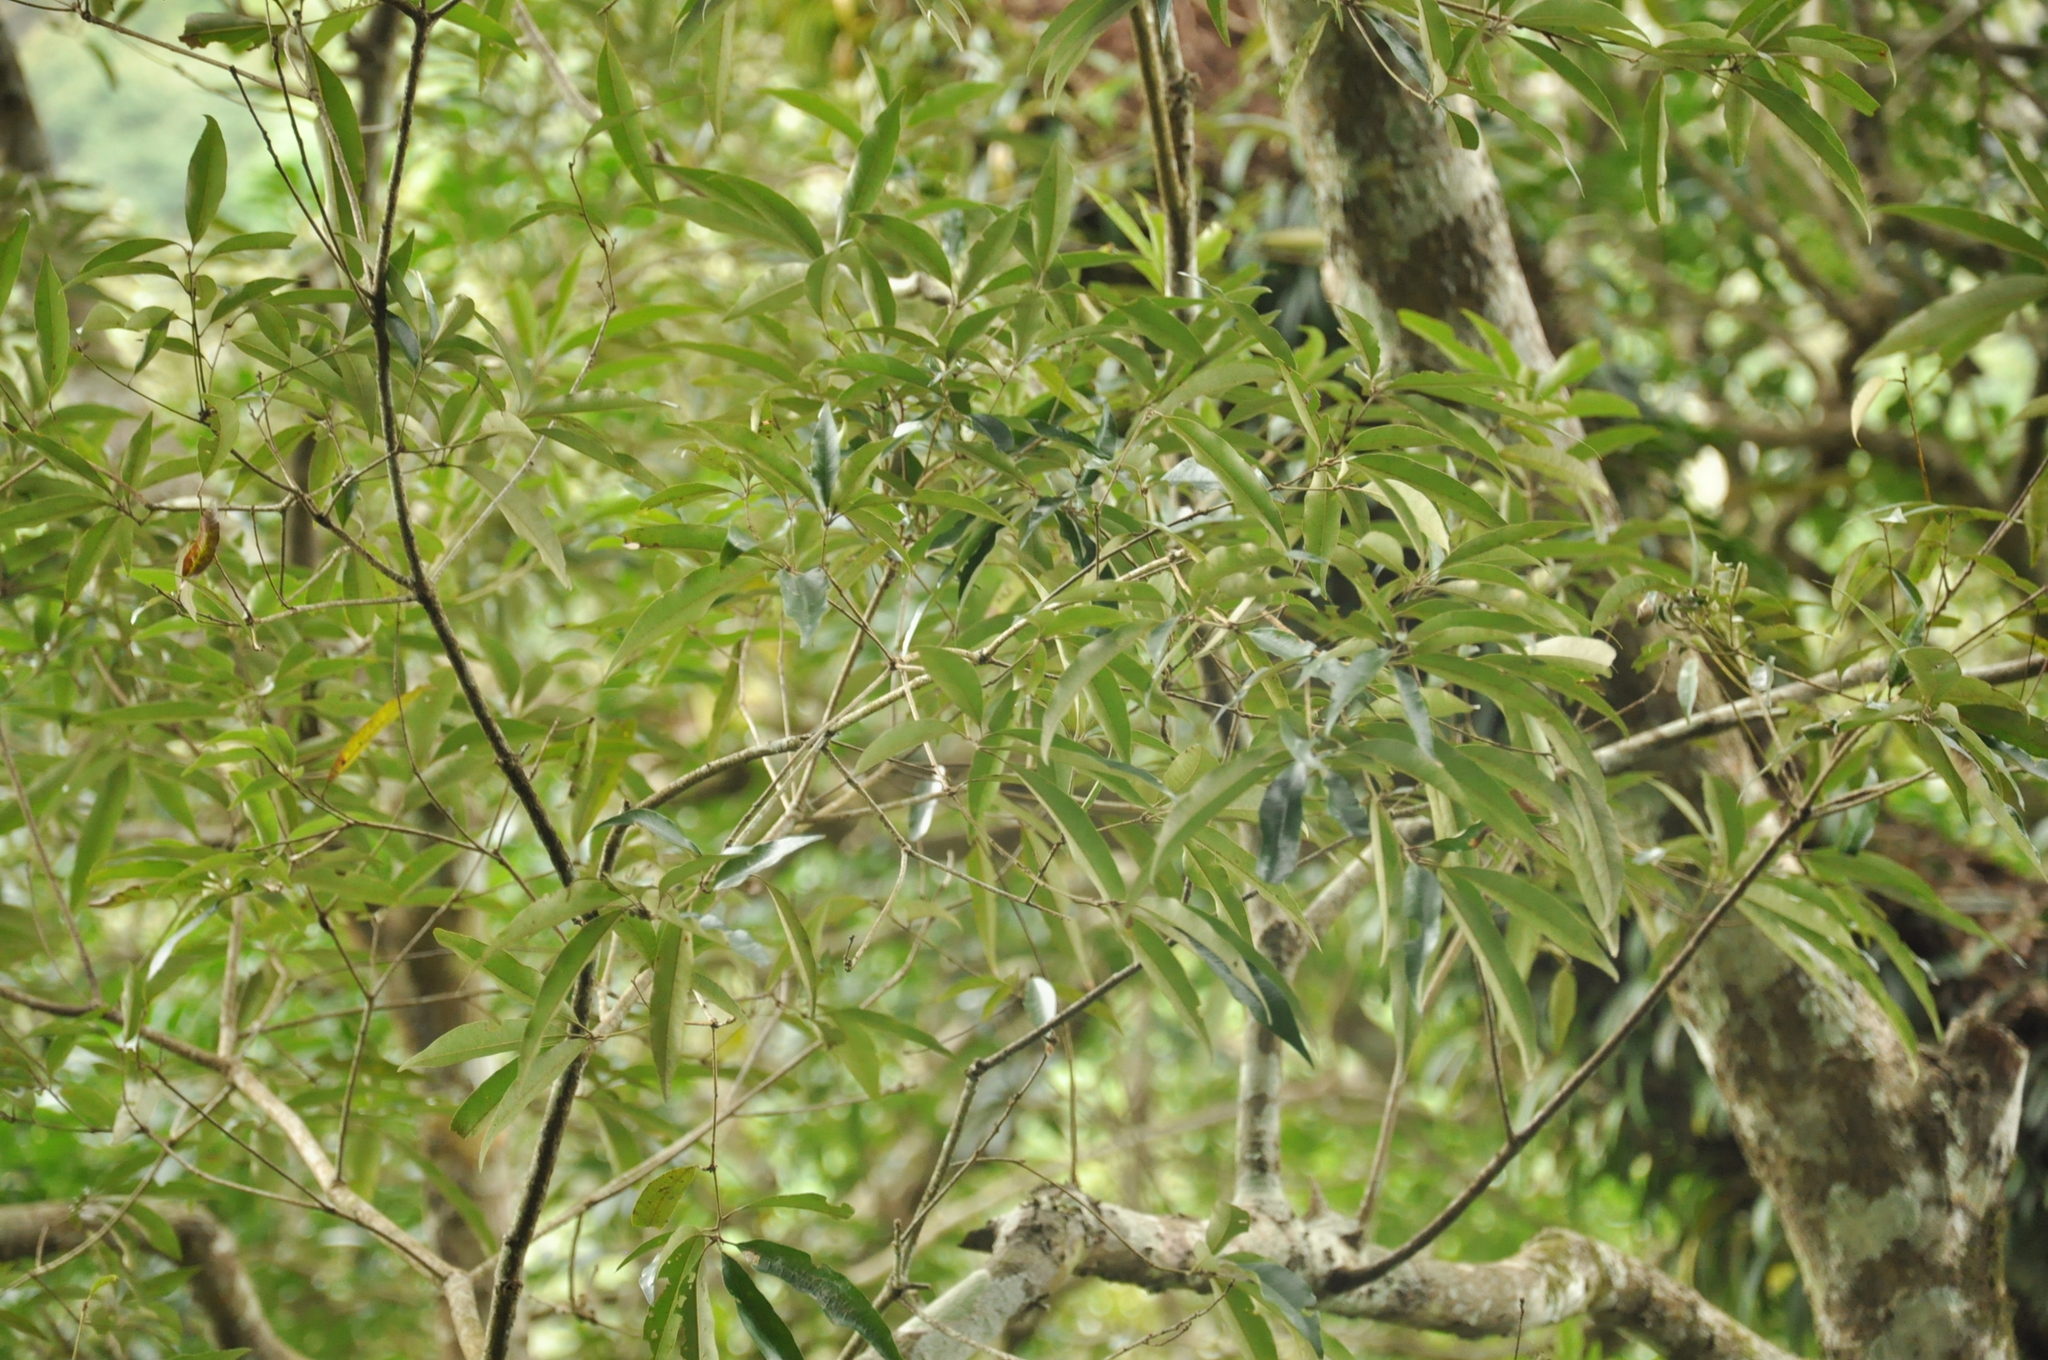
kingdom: Plantae
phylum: Tracheophyta
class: Magnoliopsida
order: Fagales
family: Fagaceae
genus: Quercus
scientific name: Quercus hypophaea
